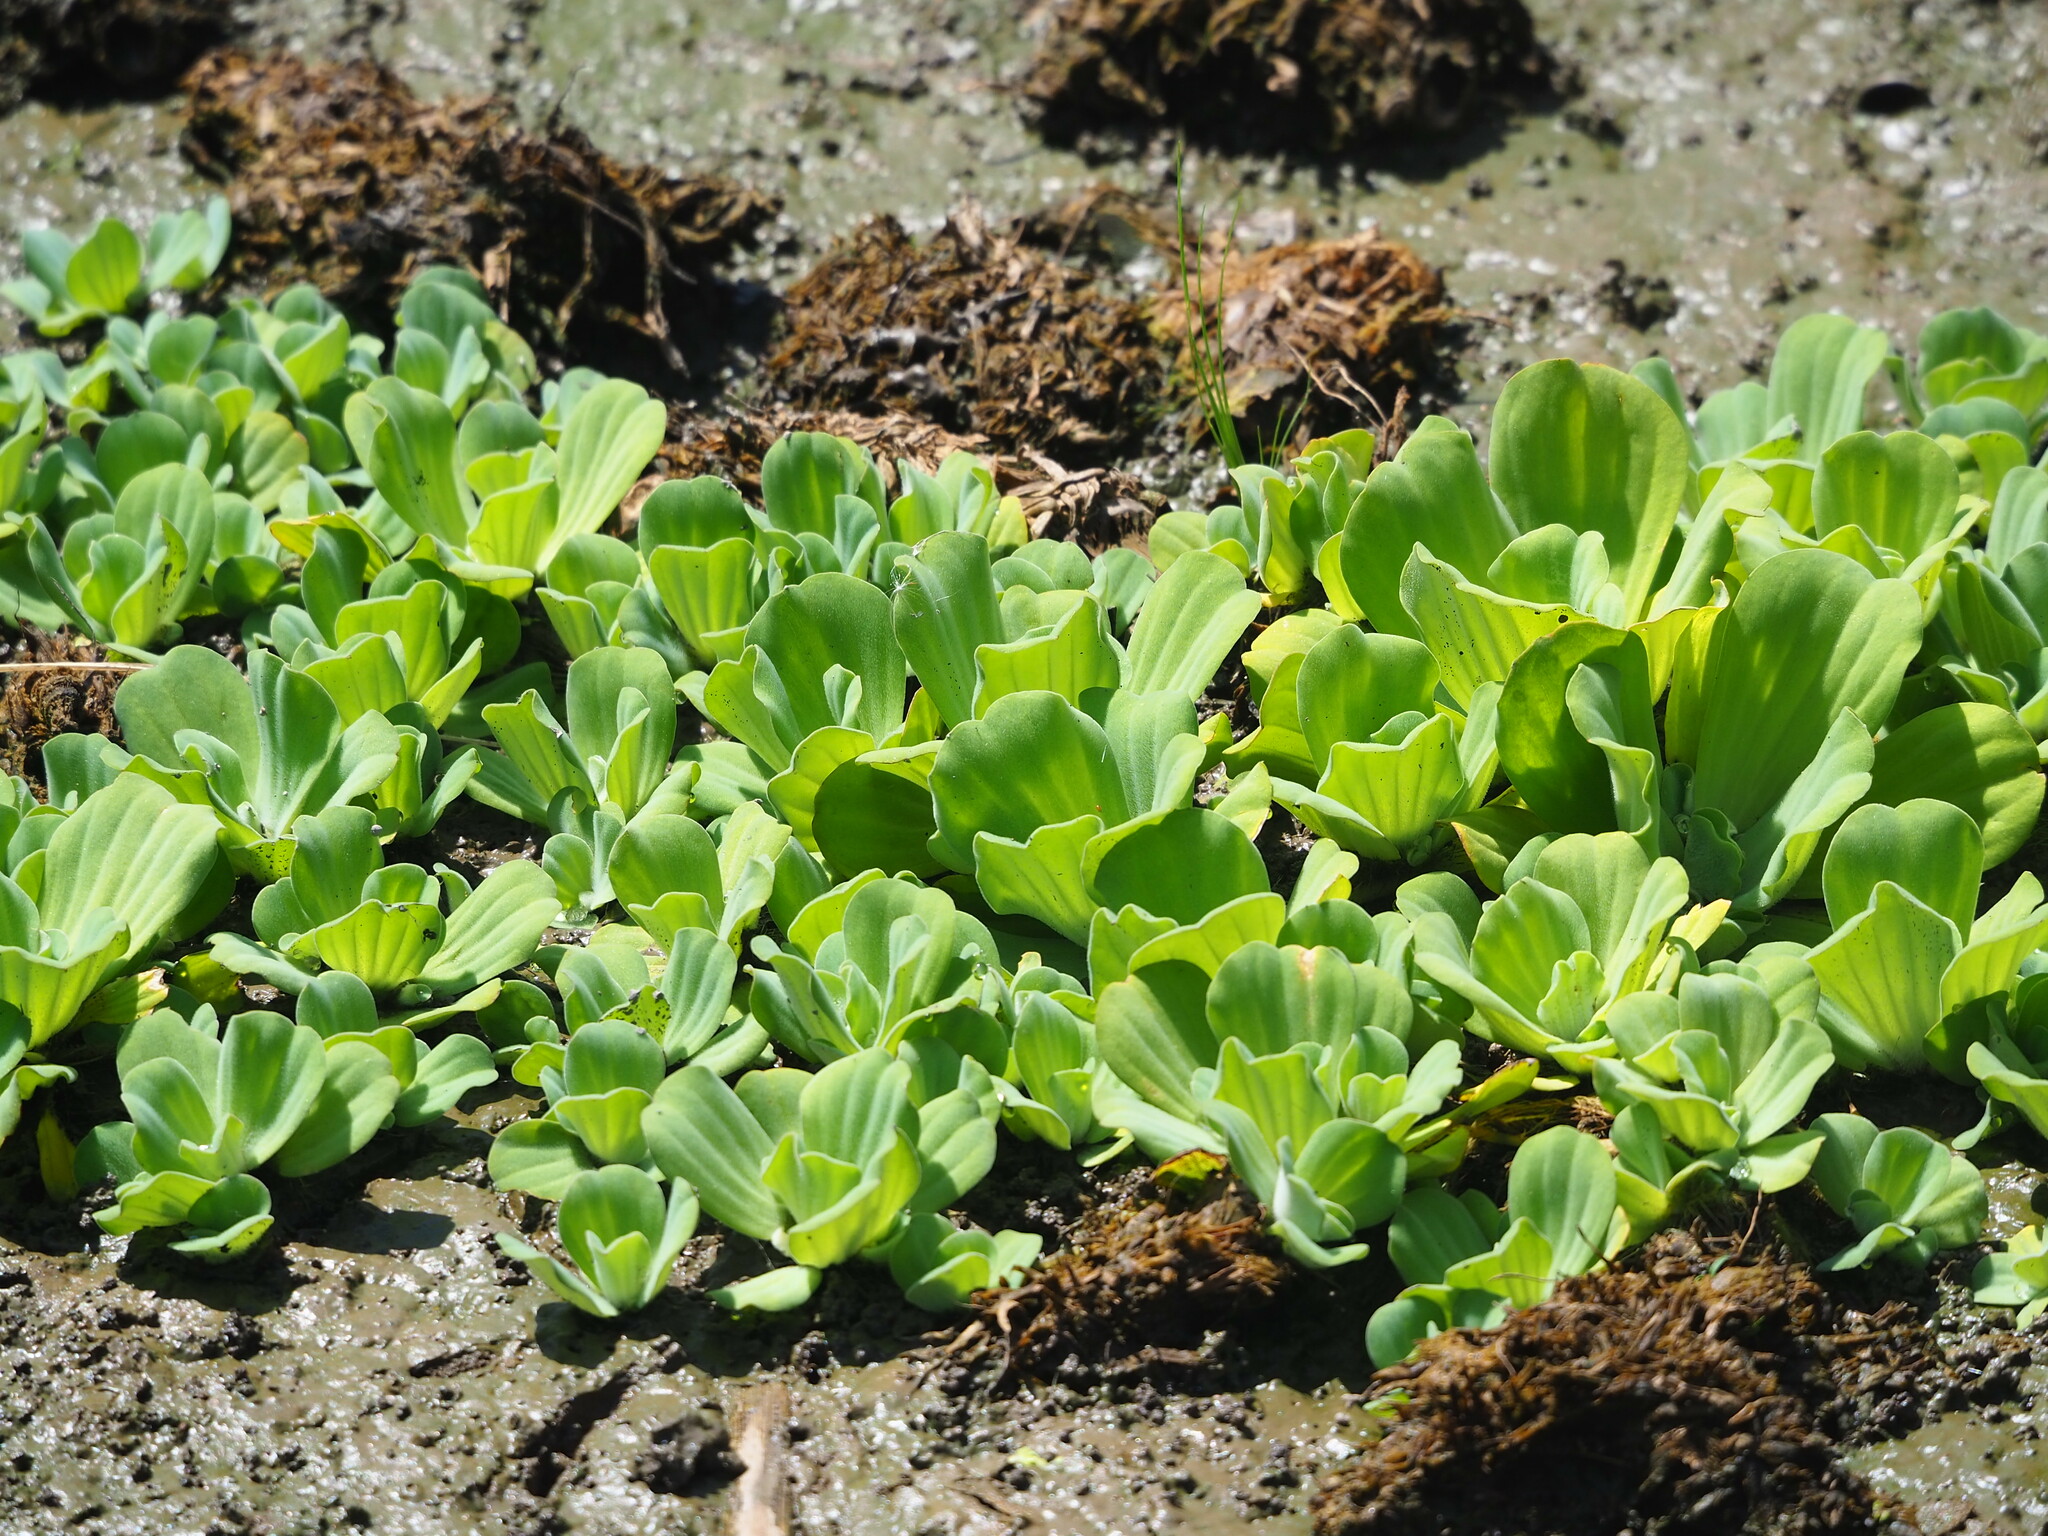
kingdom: Plantae
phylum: Tracheophyta
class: Liliopsida
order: Alismatales
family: Araceae
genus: Pistia
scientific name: Pistia stratiotes
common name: Water lettuce
